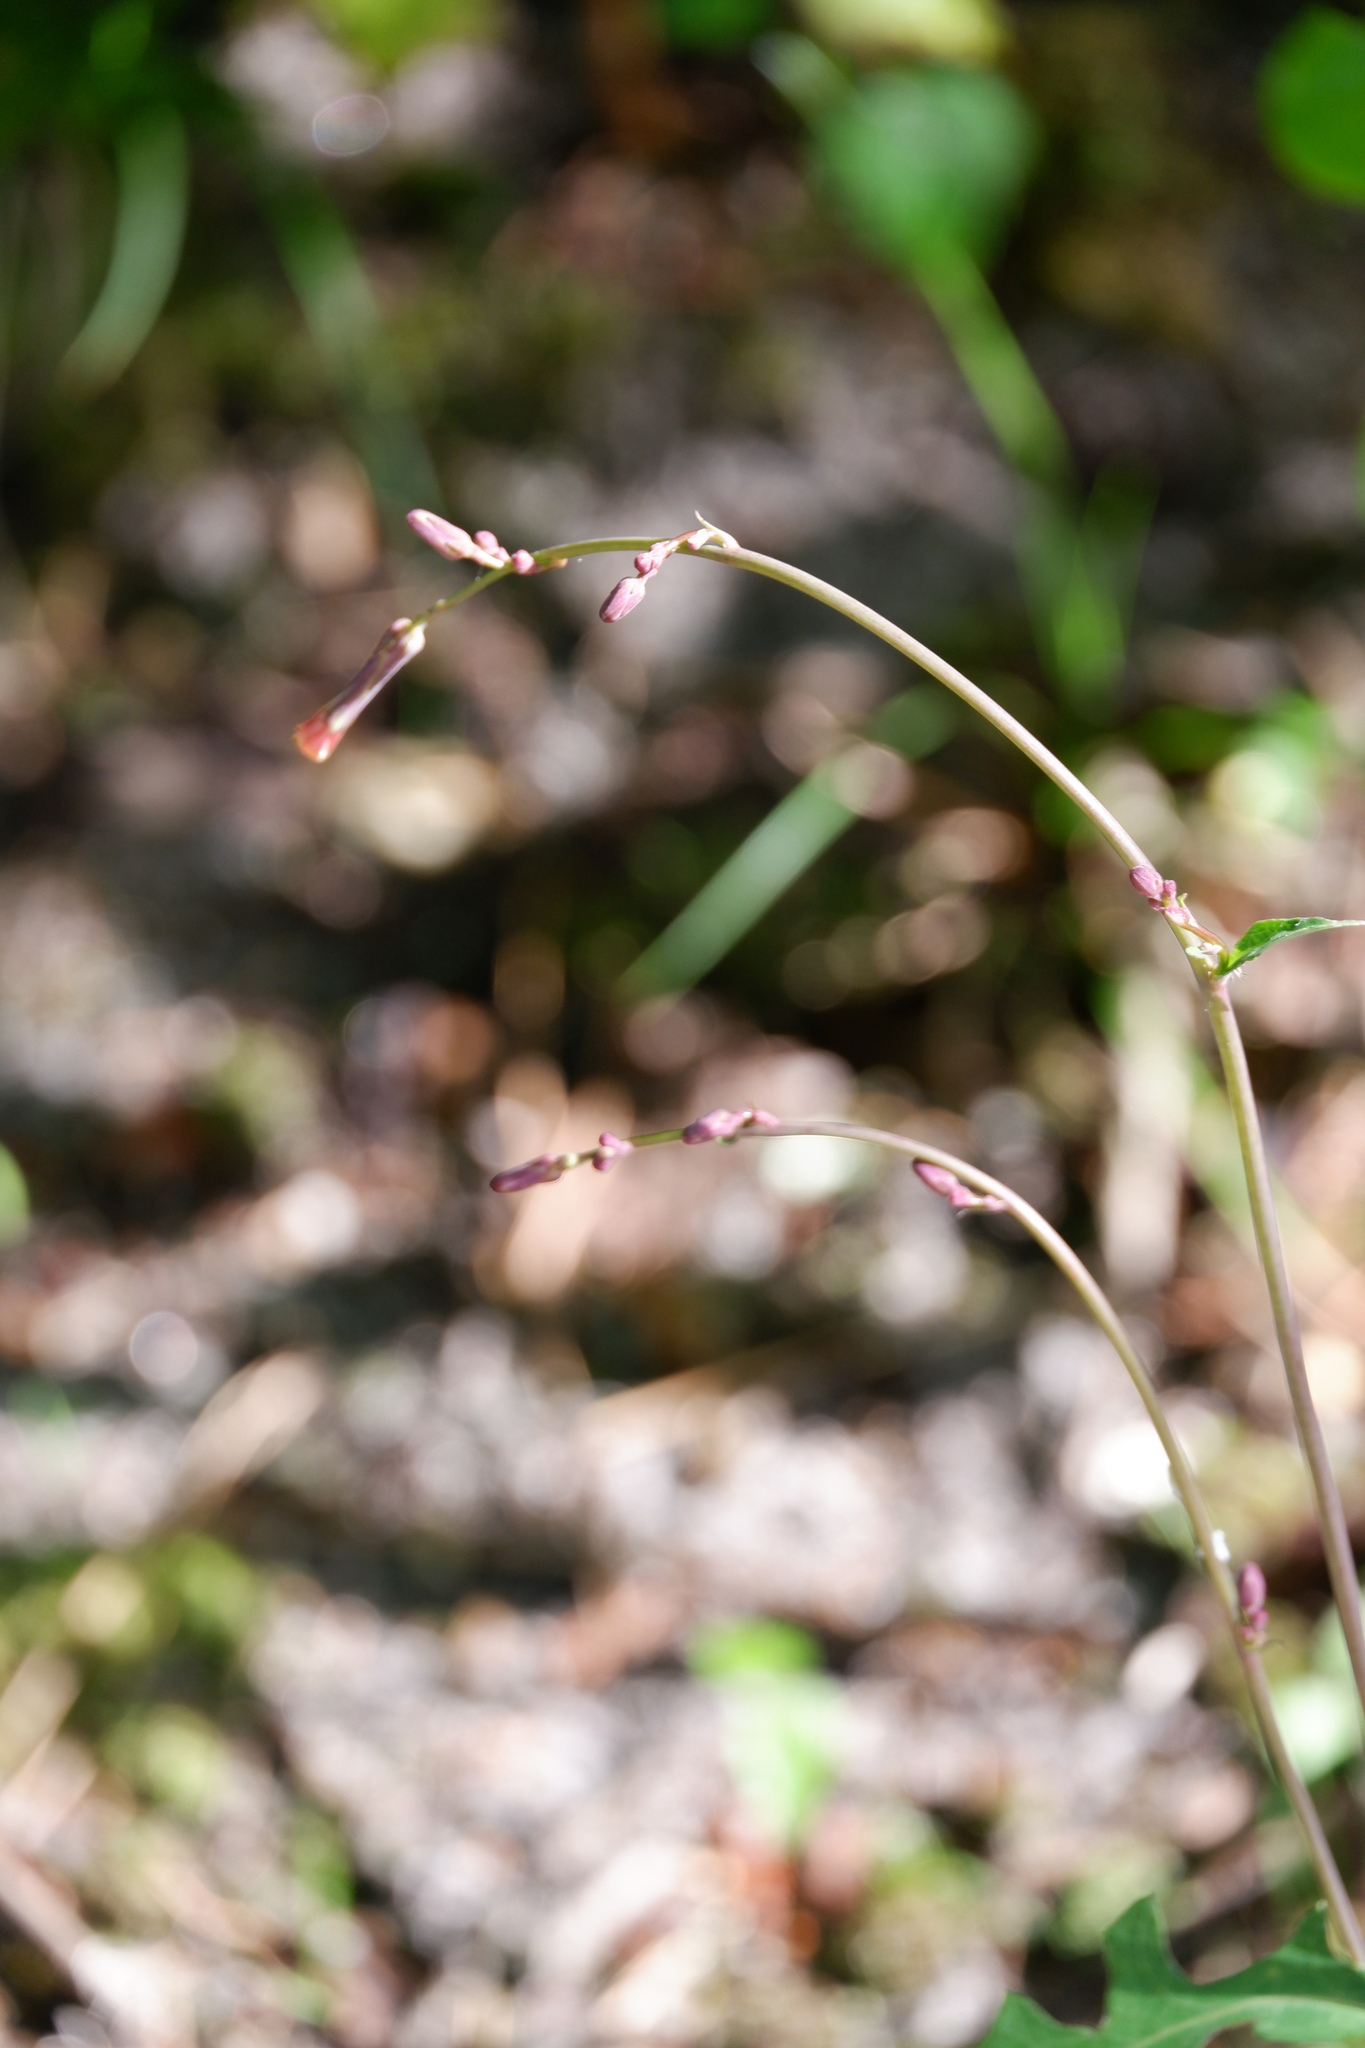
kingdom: Plantae
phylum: Tracheophyta
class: Magnoliopsida
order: Asterales
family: Asteraceae
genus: Lactuca
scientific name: Lactuca hirsuta
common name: Hairy lettuce
